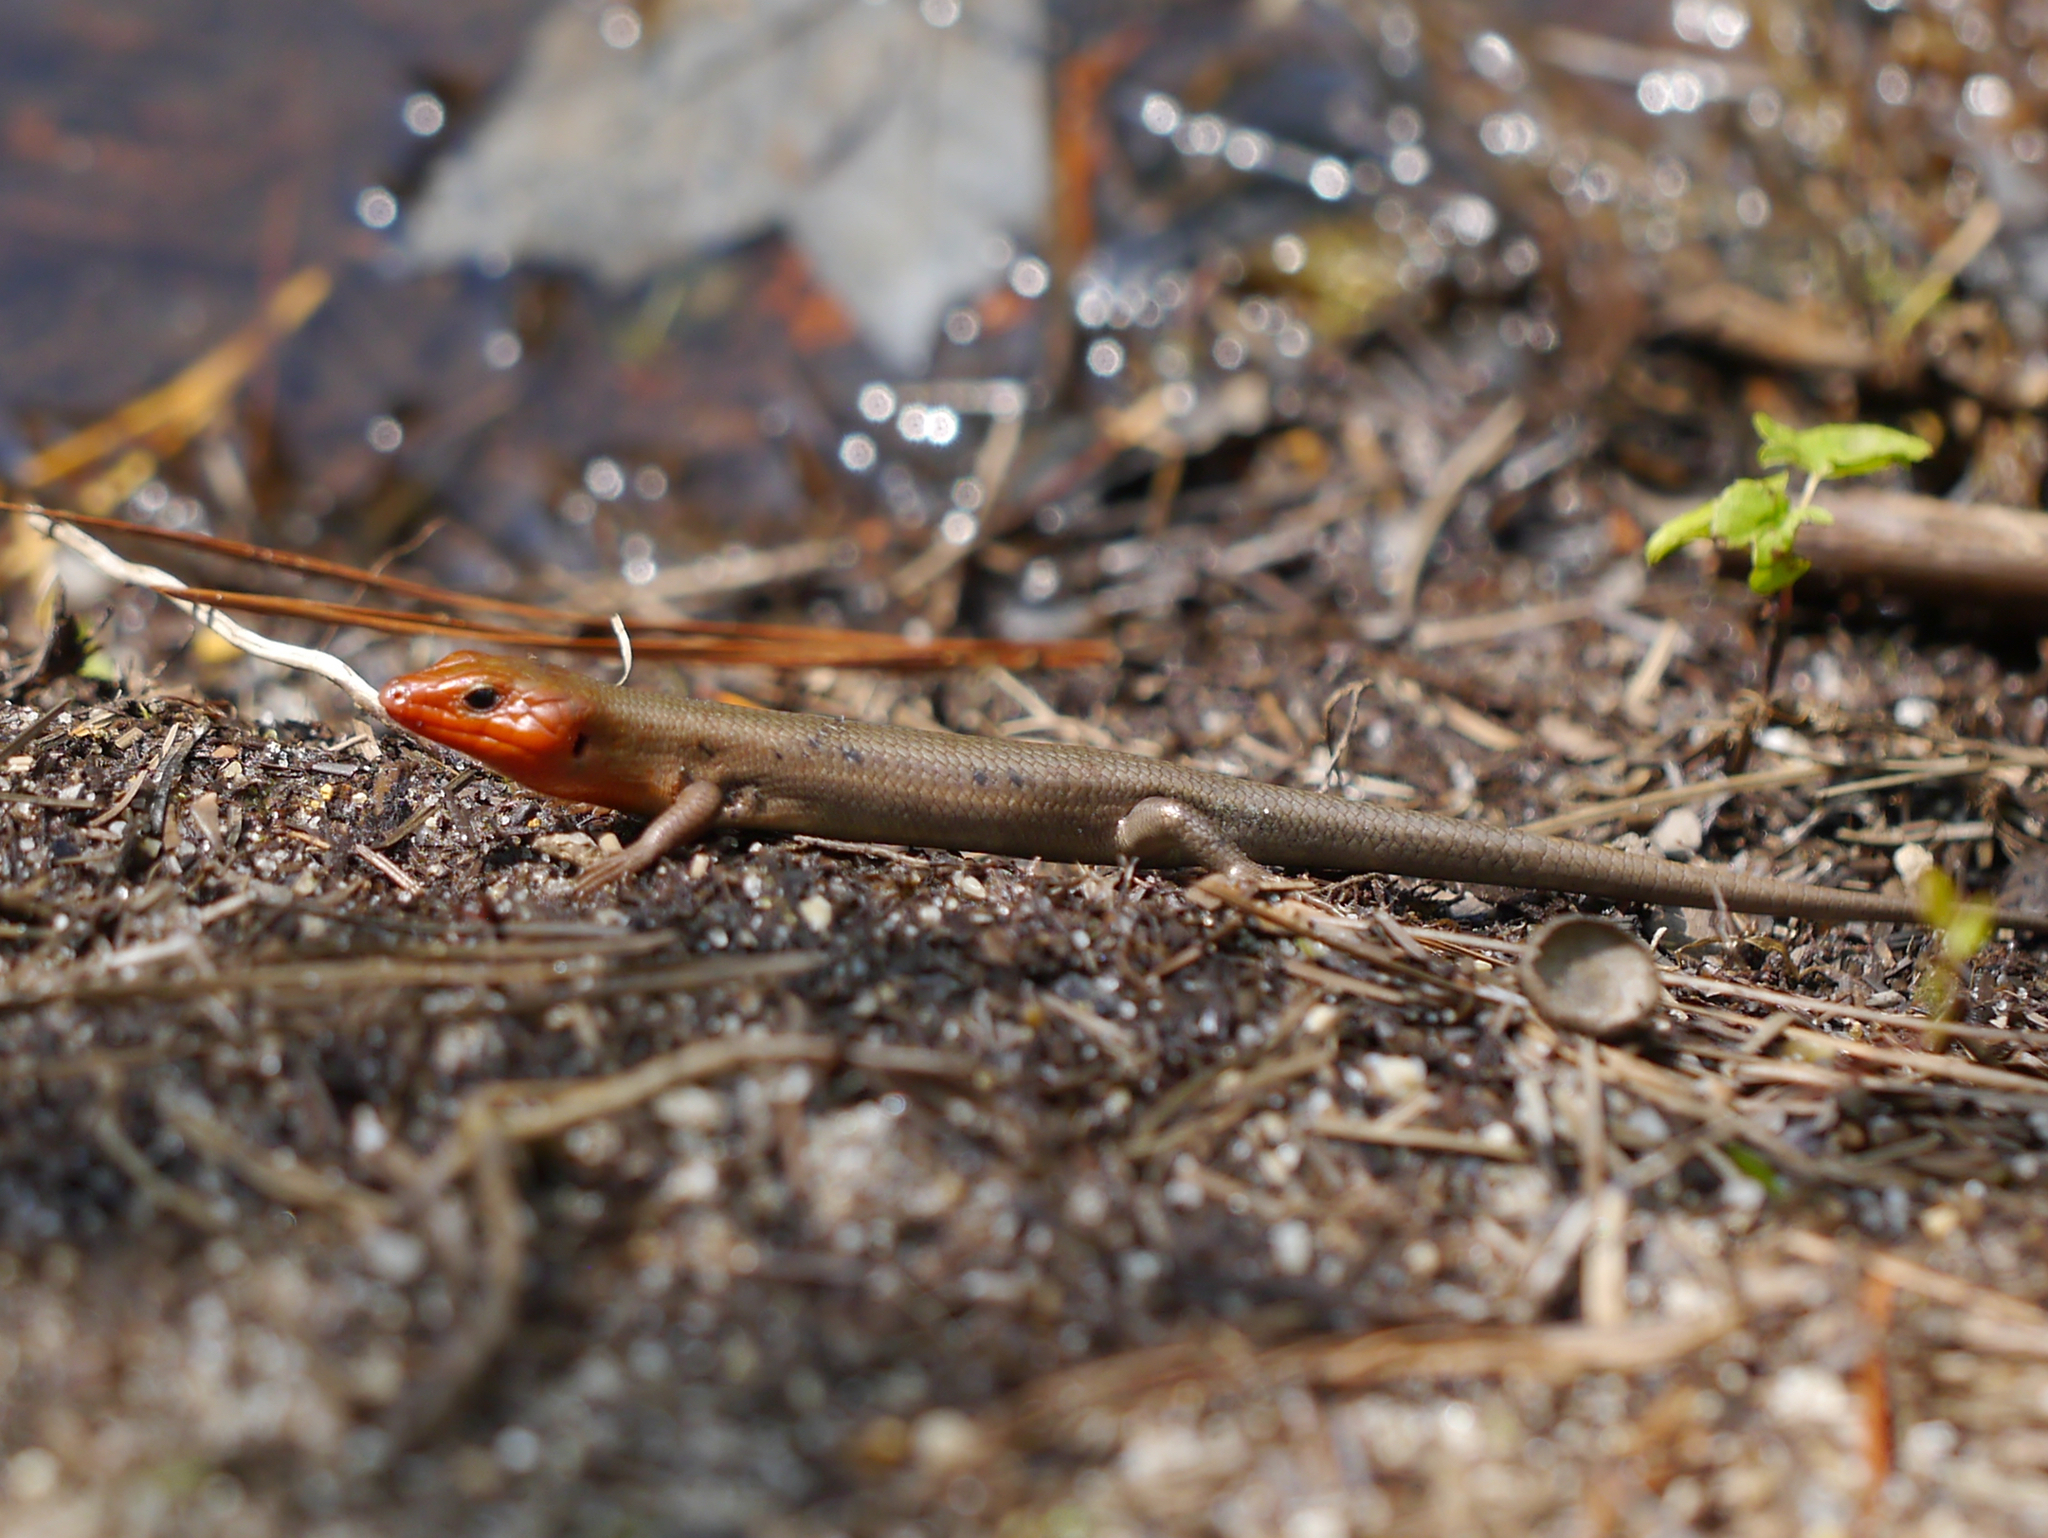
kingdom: Animalia
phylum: Chordata
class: Squamata
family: Scincidae
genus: Plestiodon
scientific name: Plestiodon fasciatus
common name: Five-lined skink
